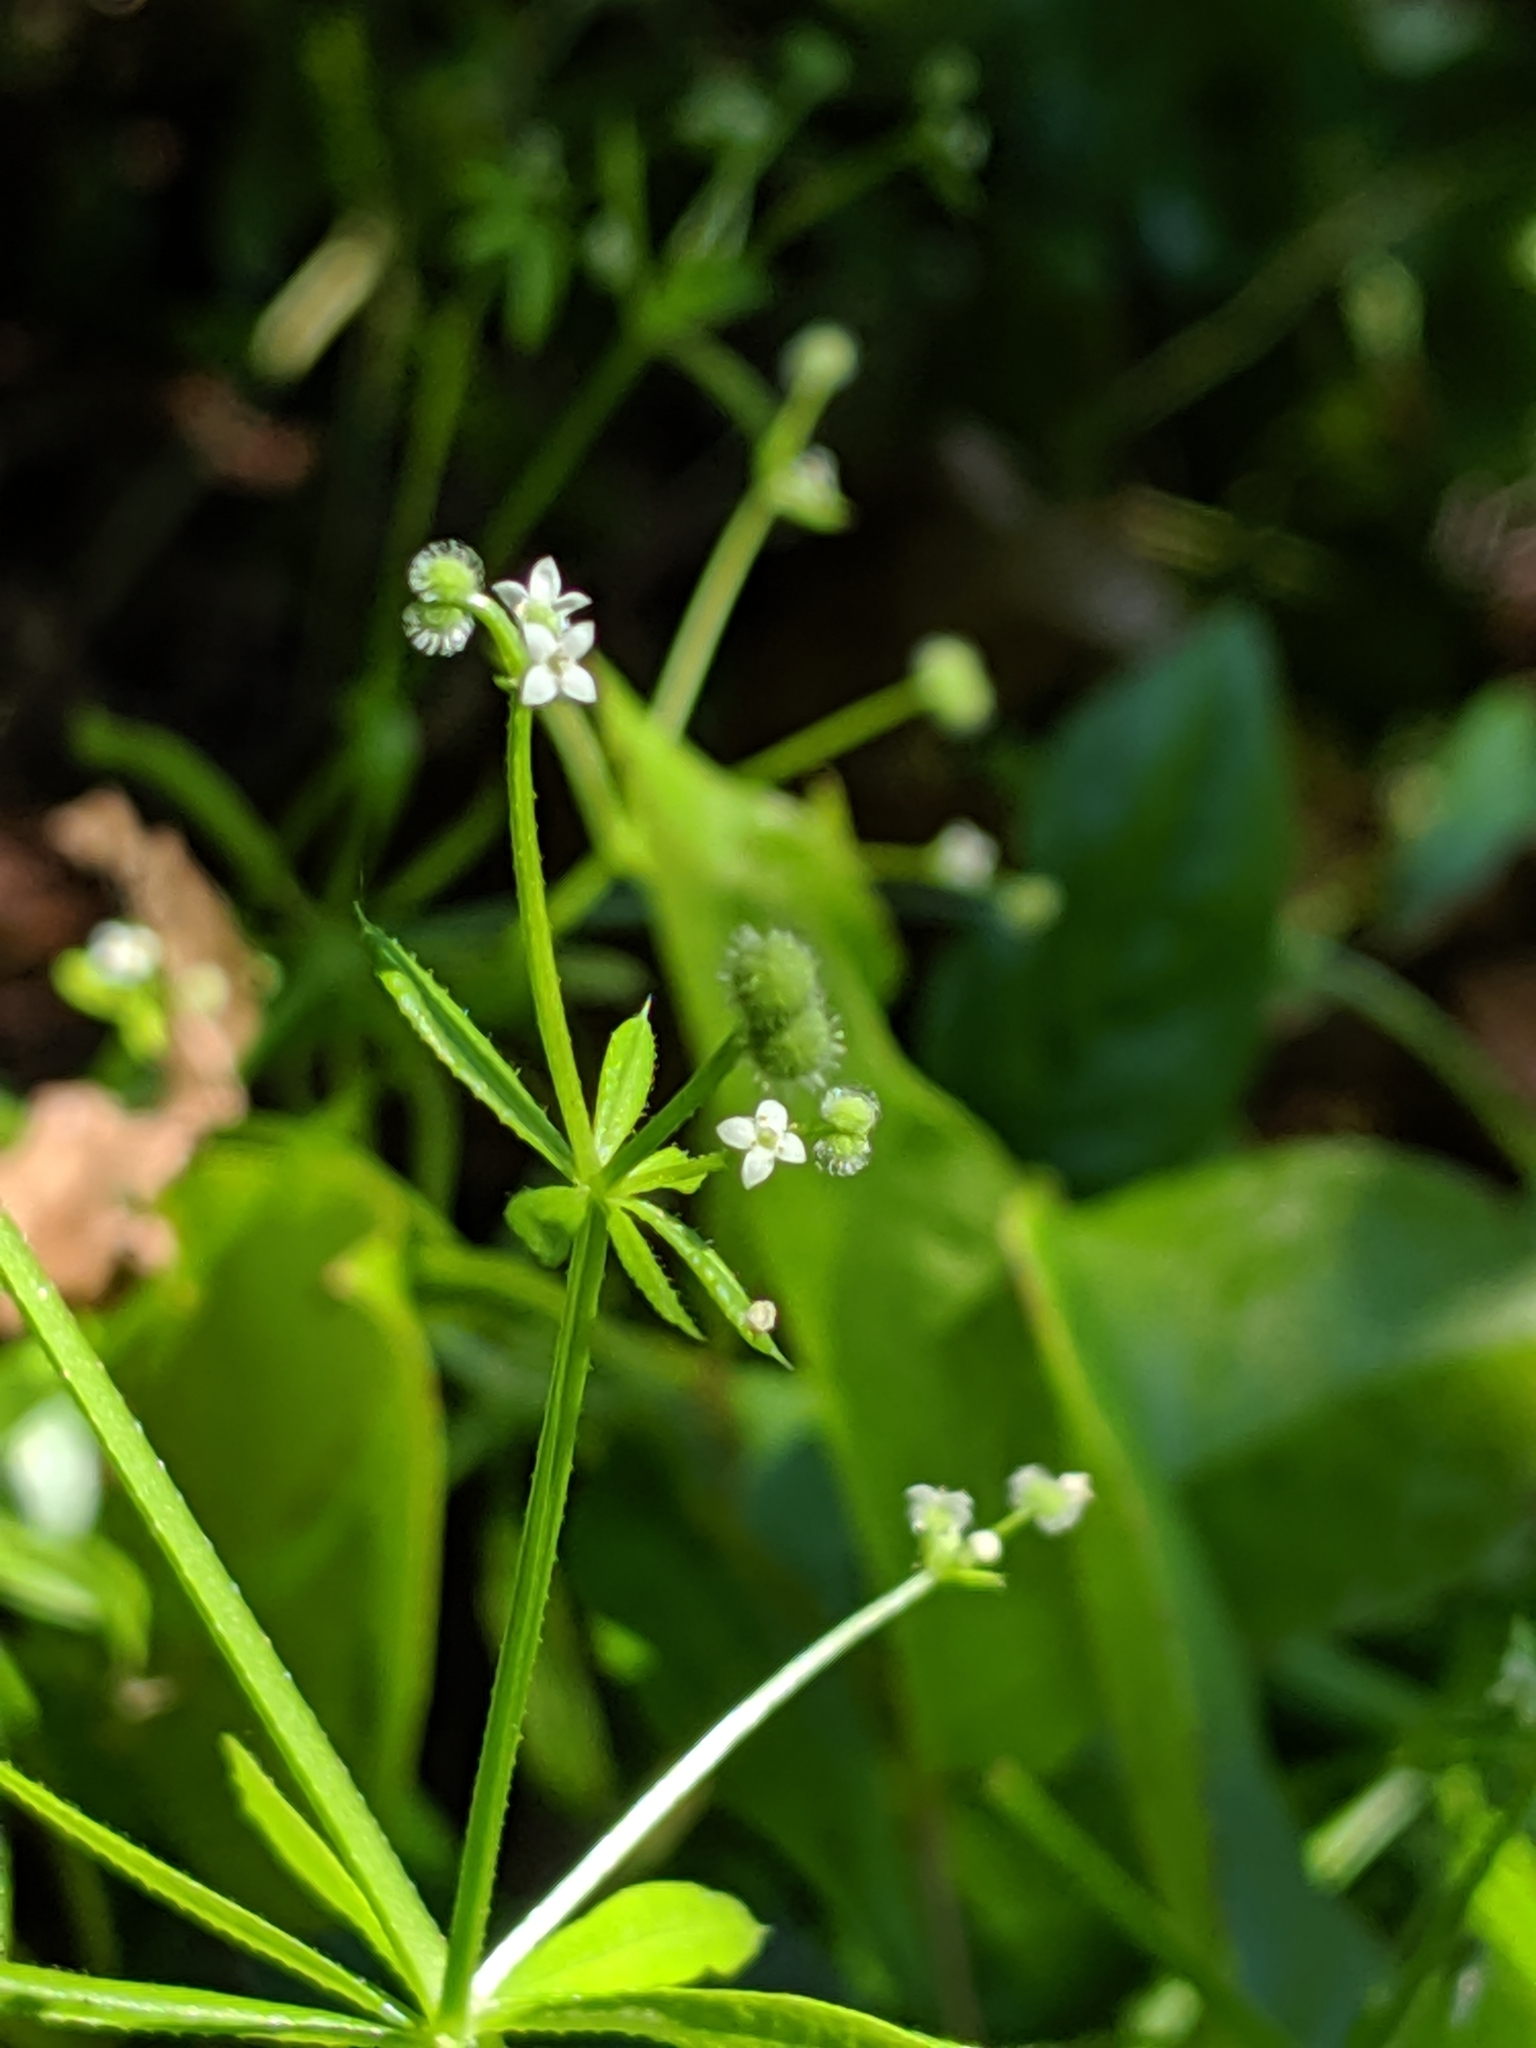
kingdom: Plantae
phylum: Tracheophyta
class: Magnoliopsida
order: Gentianales
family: Rubiaceae
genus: Galium
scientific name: Galium aparine
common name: Cleavers
